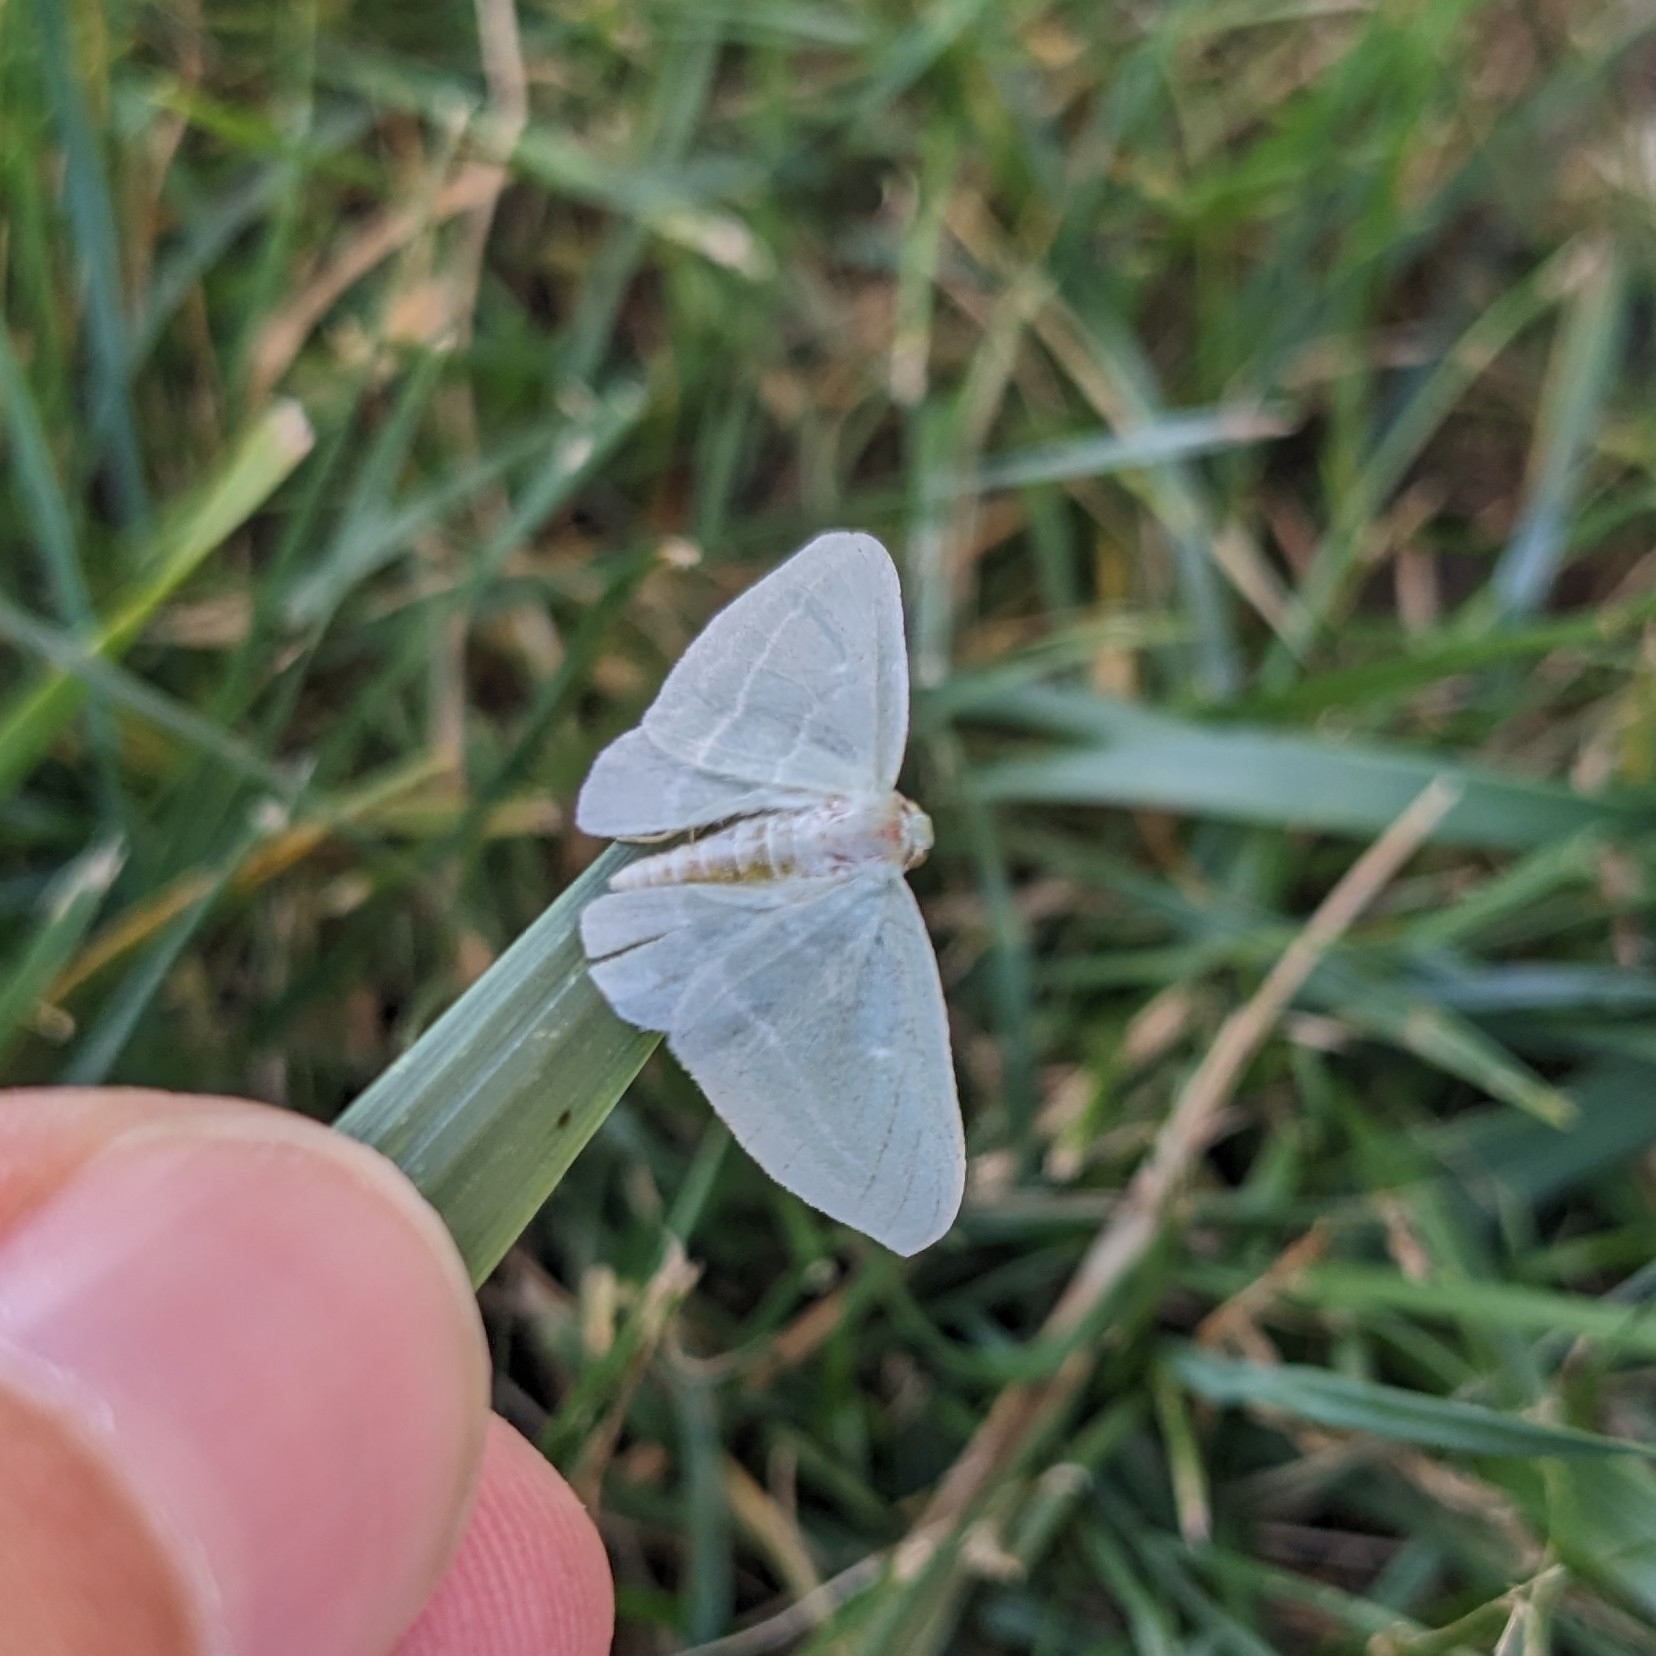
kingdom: Animalia
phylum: Arthropoda
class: Insecta
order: Lepidoptera
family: Geometridae
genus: Dyspteris
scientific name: Dyspteris abortivaria
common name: Bad-wing
